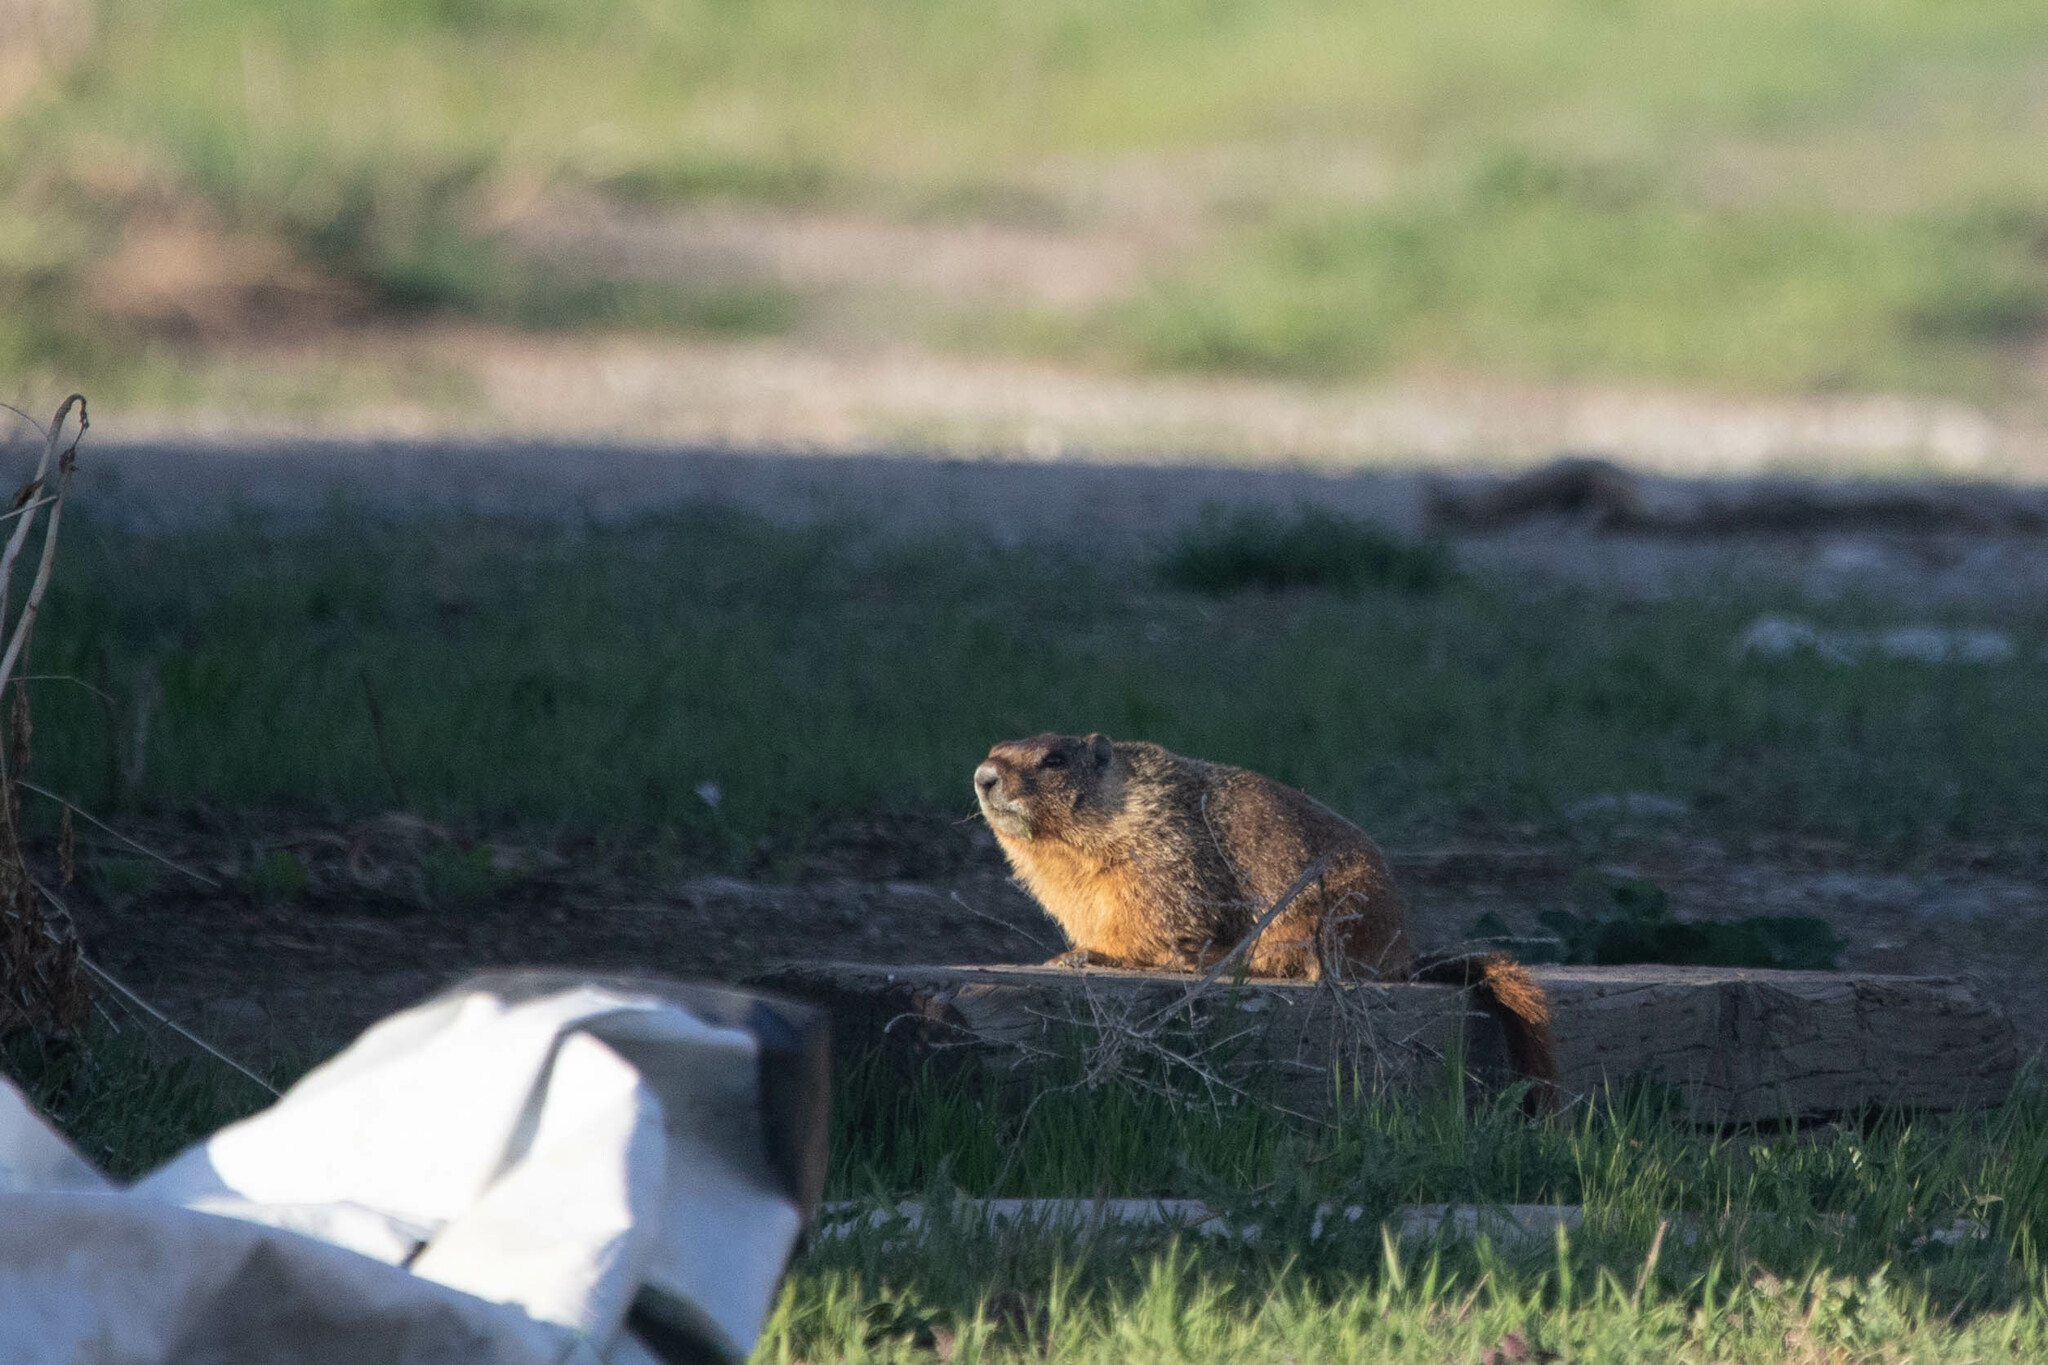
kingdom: Animalia
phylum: Chordata
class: Mammalia
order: Rodentia
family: Sciuridae
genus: Marmota
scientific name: Marmota flaviventris
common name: Yellow-bellied marmot
